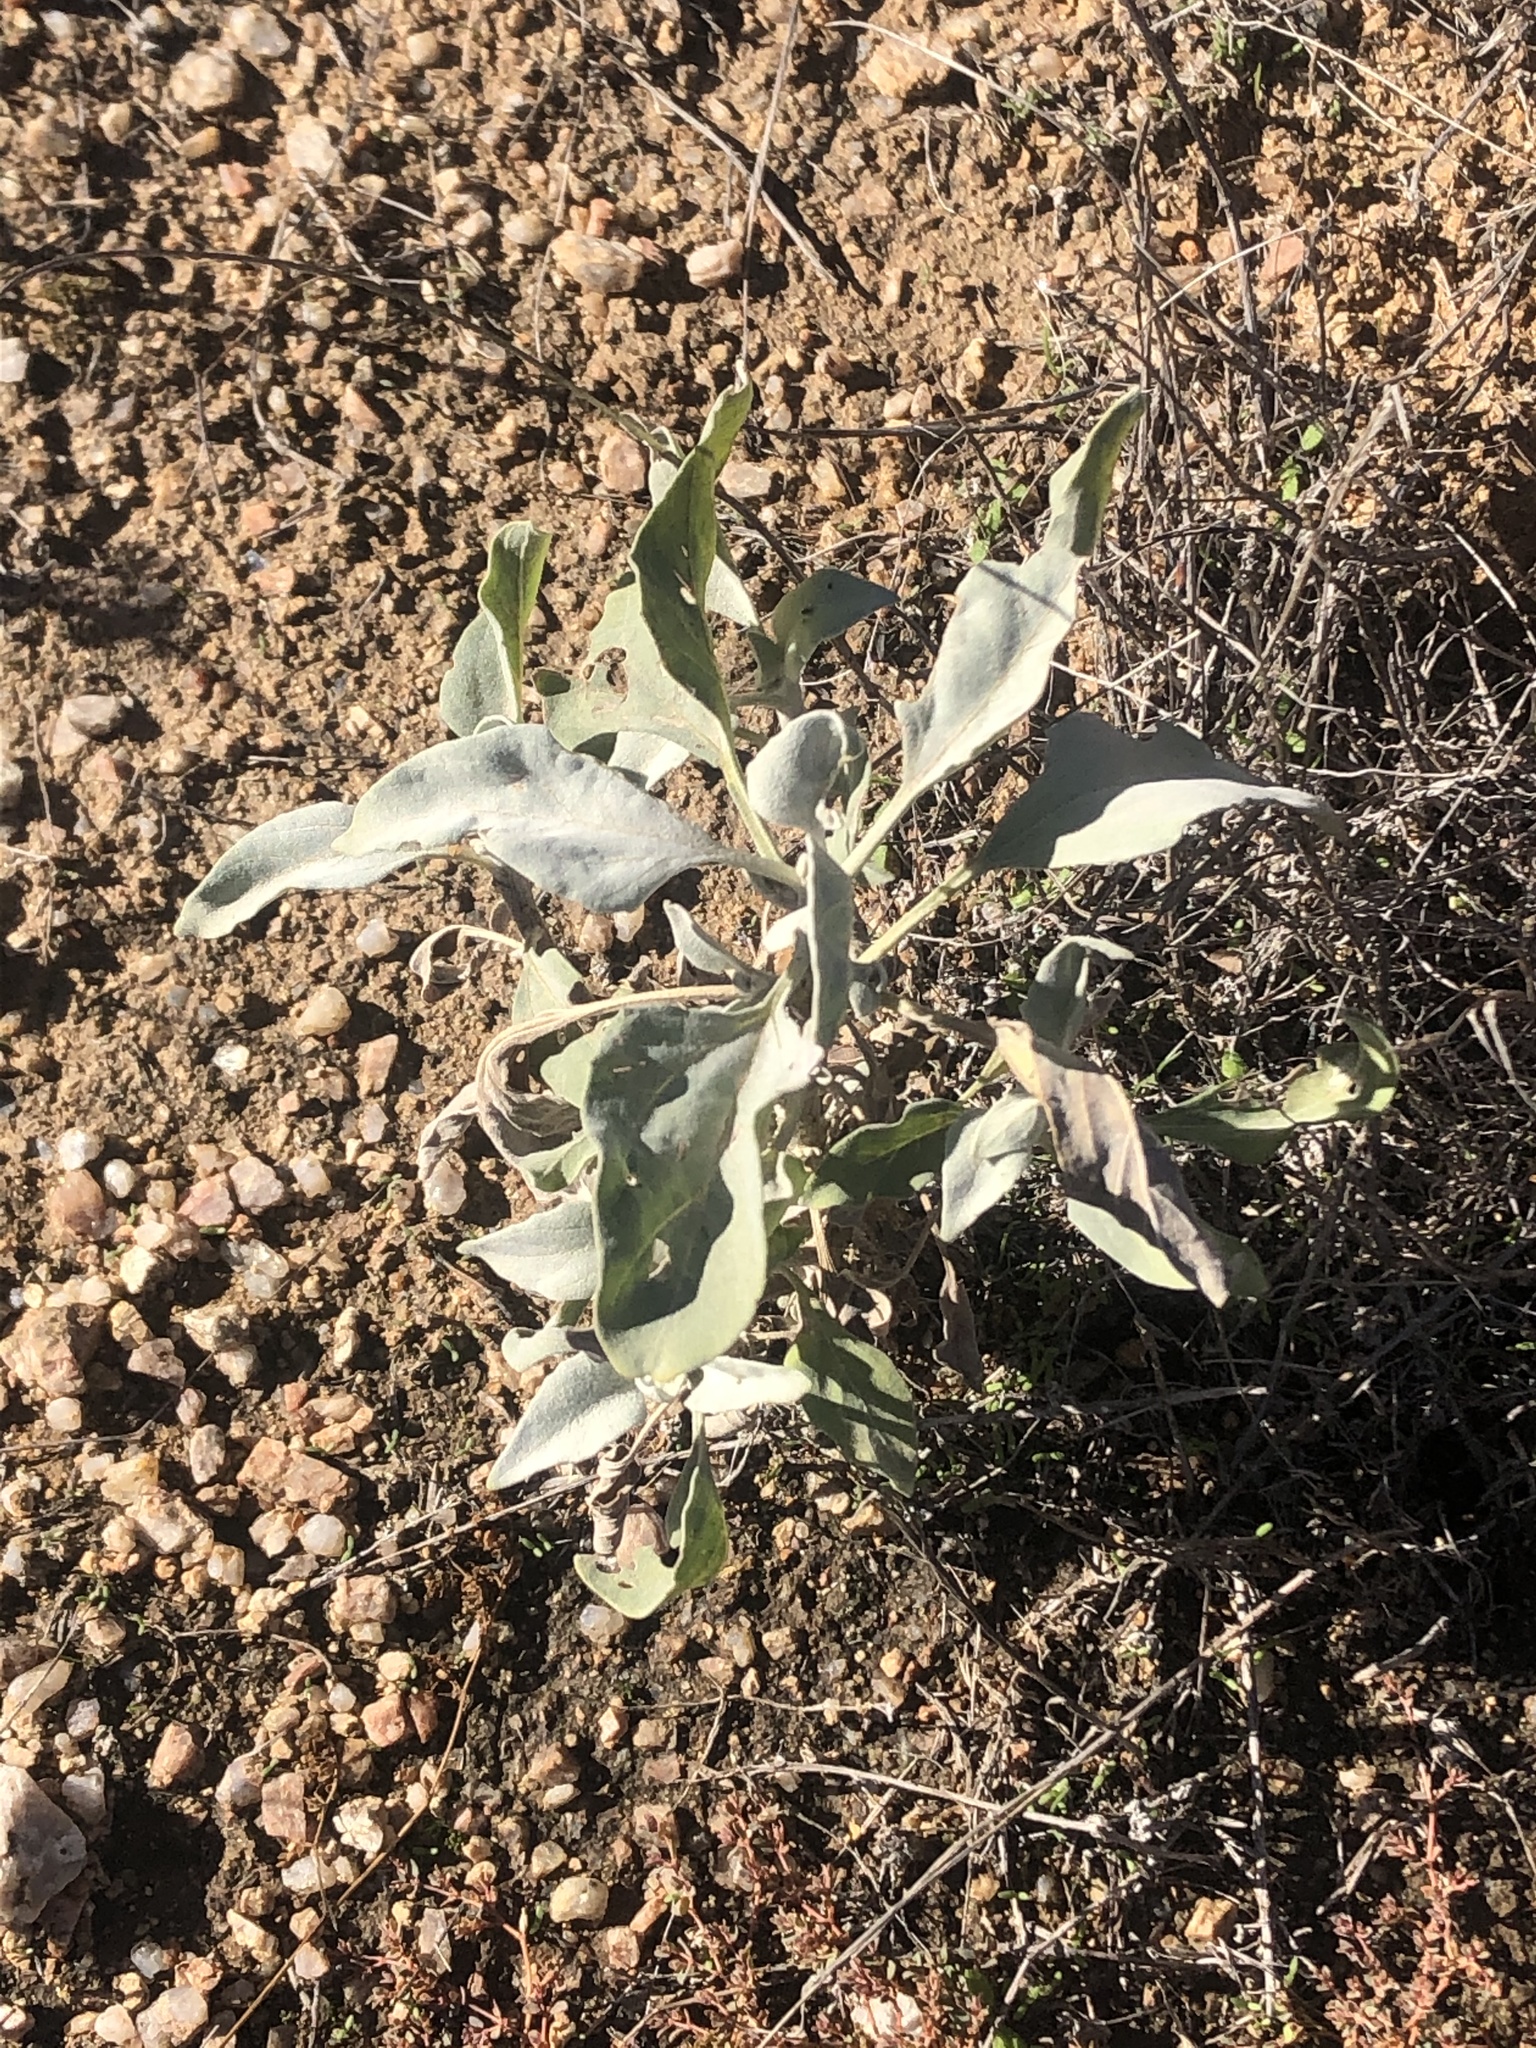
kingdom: Plantae
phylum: Tracheophyta
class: Magnoliopsida
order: Asterales
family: Asteraceae
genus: Encelia
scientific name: Encelia farinosa
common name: Brittlebush
